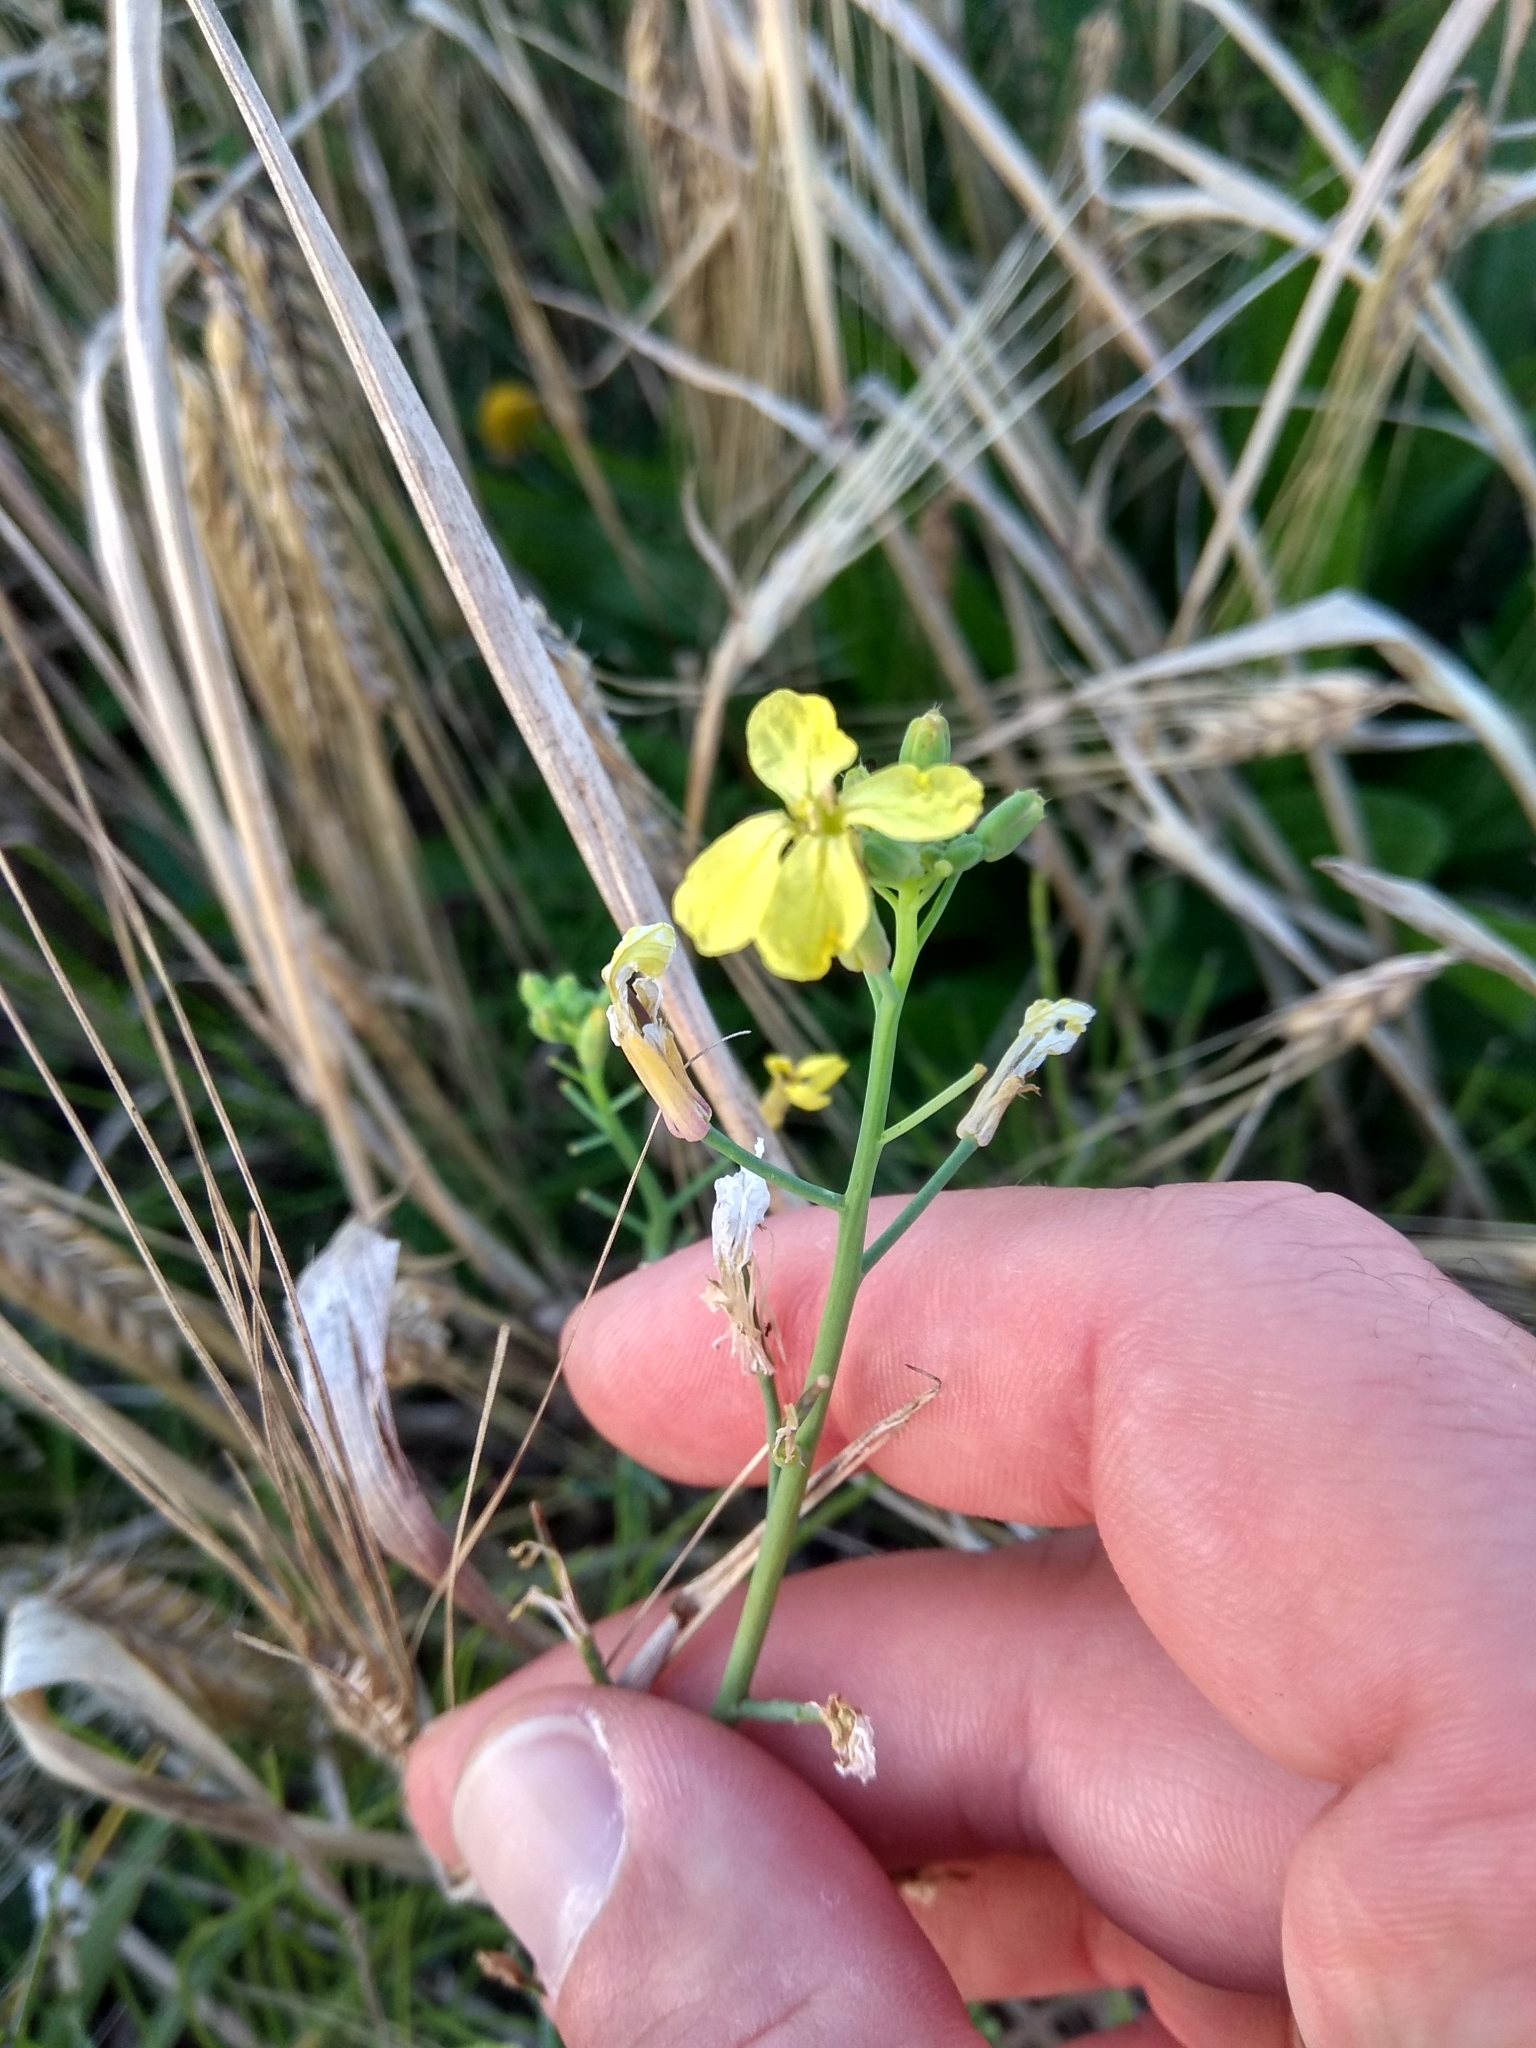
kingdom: Plantae
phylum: Tracheophyta
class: Magnoliopsida
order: Brassicales
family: Brassicaceae
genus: Raphanus
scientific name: Raphanus raphanistrum
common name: Wild radish
